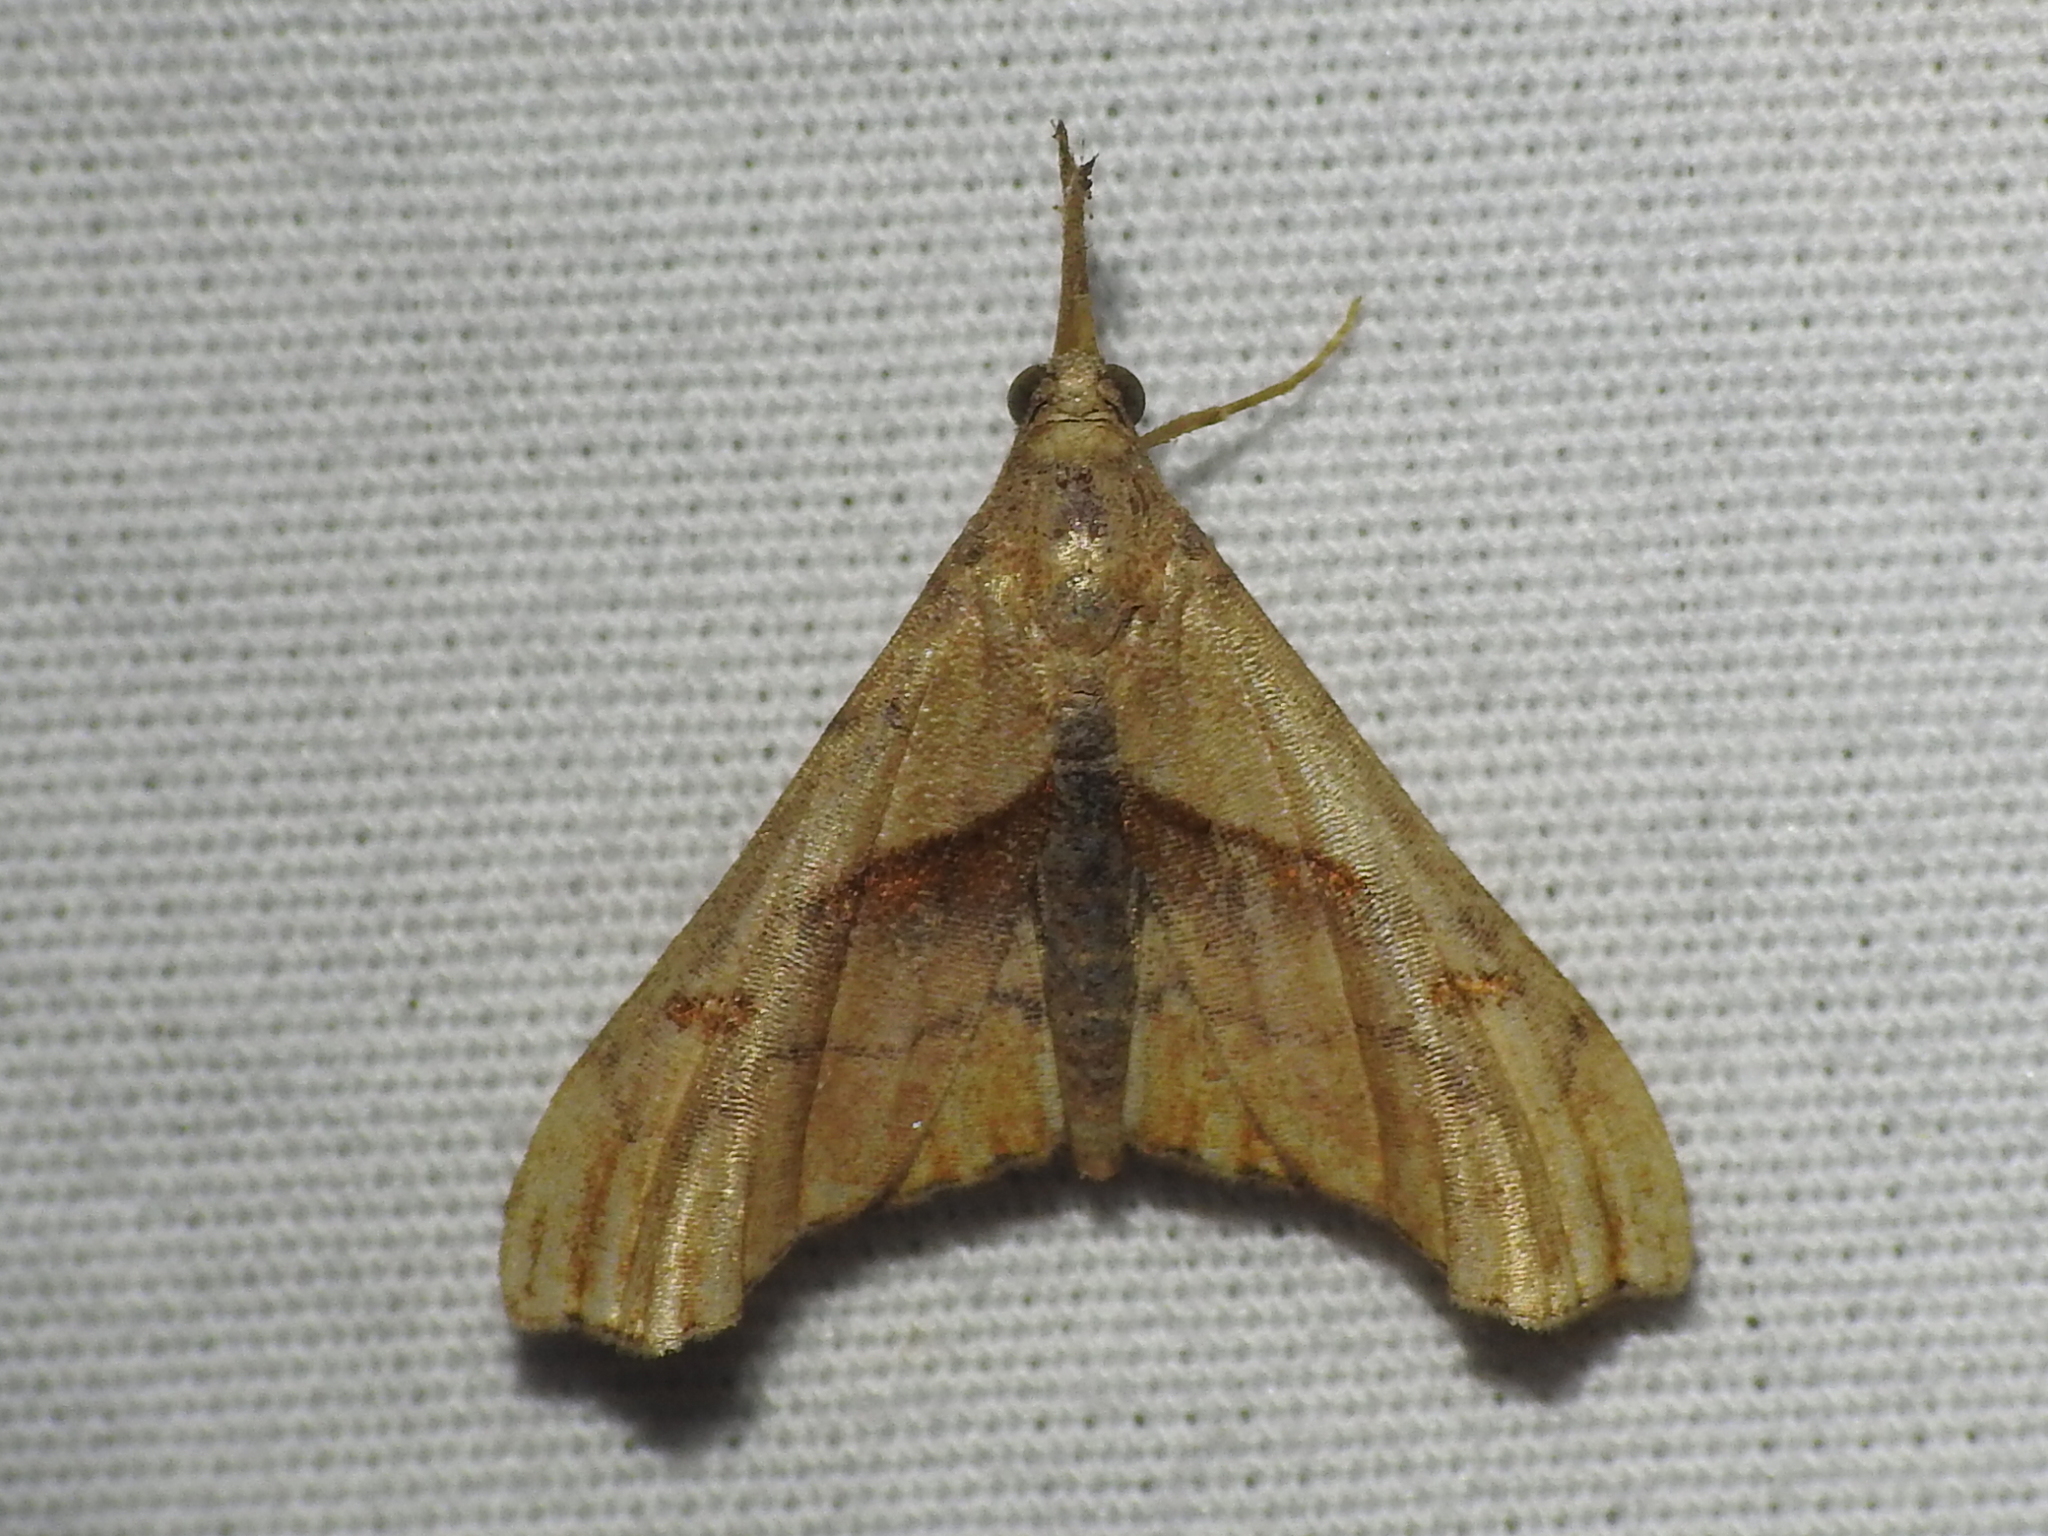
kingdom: Animalia
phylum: Arthropoda
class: Insecta
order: Lepidoptera
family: Erebidae
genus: Palthis
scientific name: Palthis angulalis
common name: Dark-spotted palthis moth
